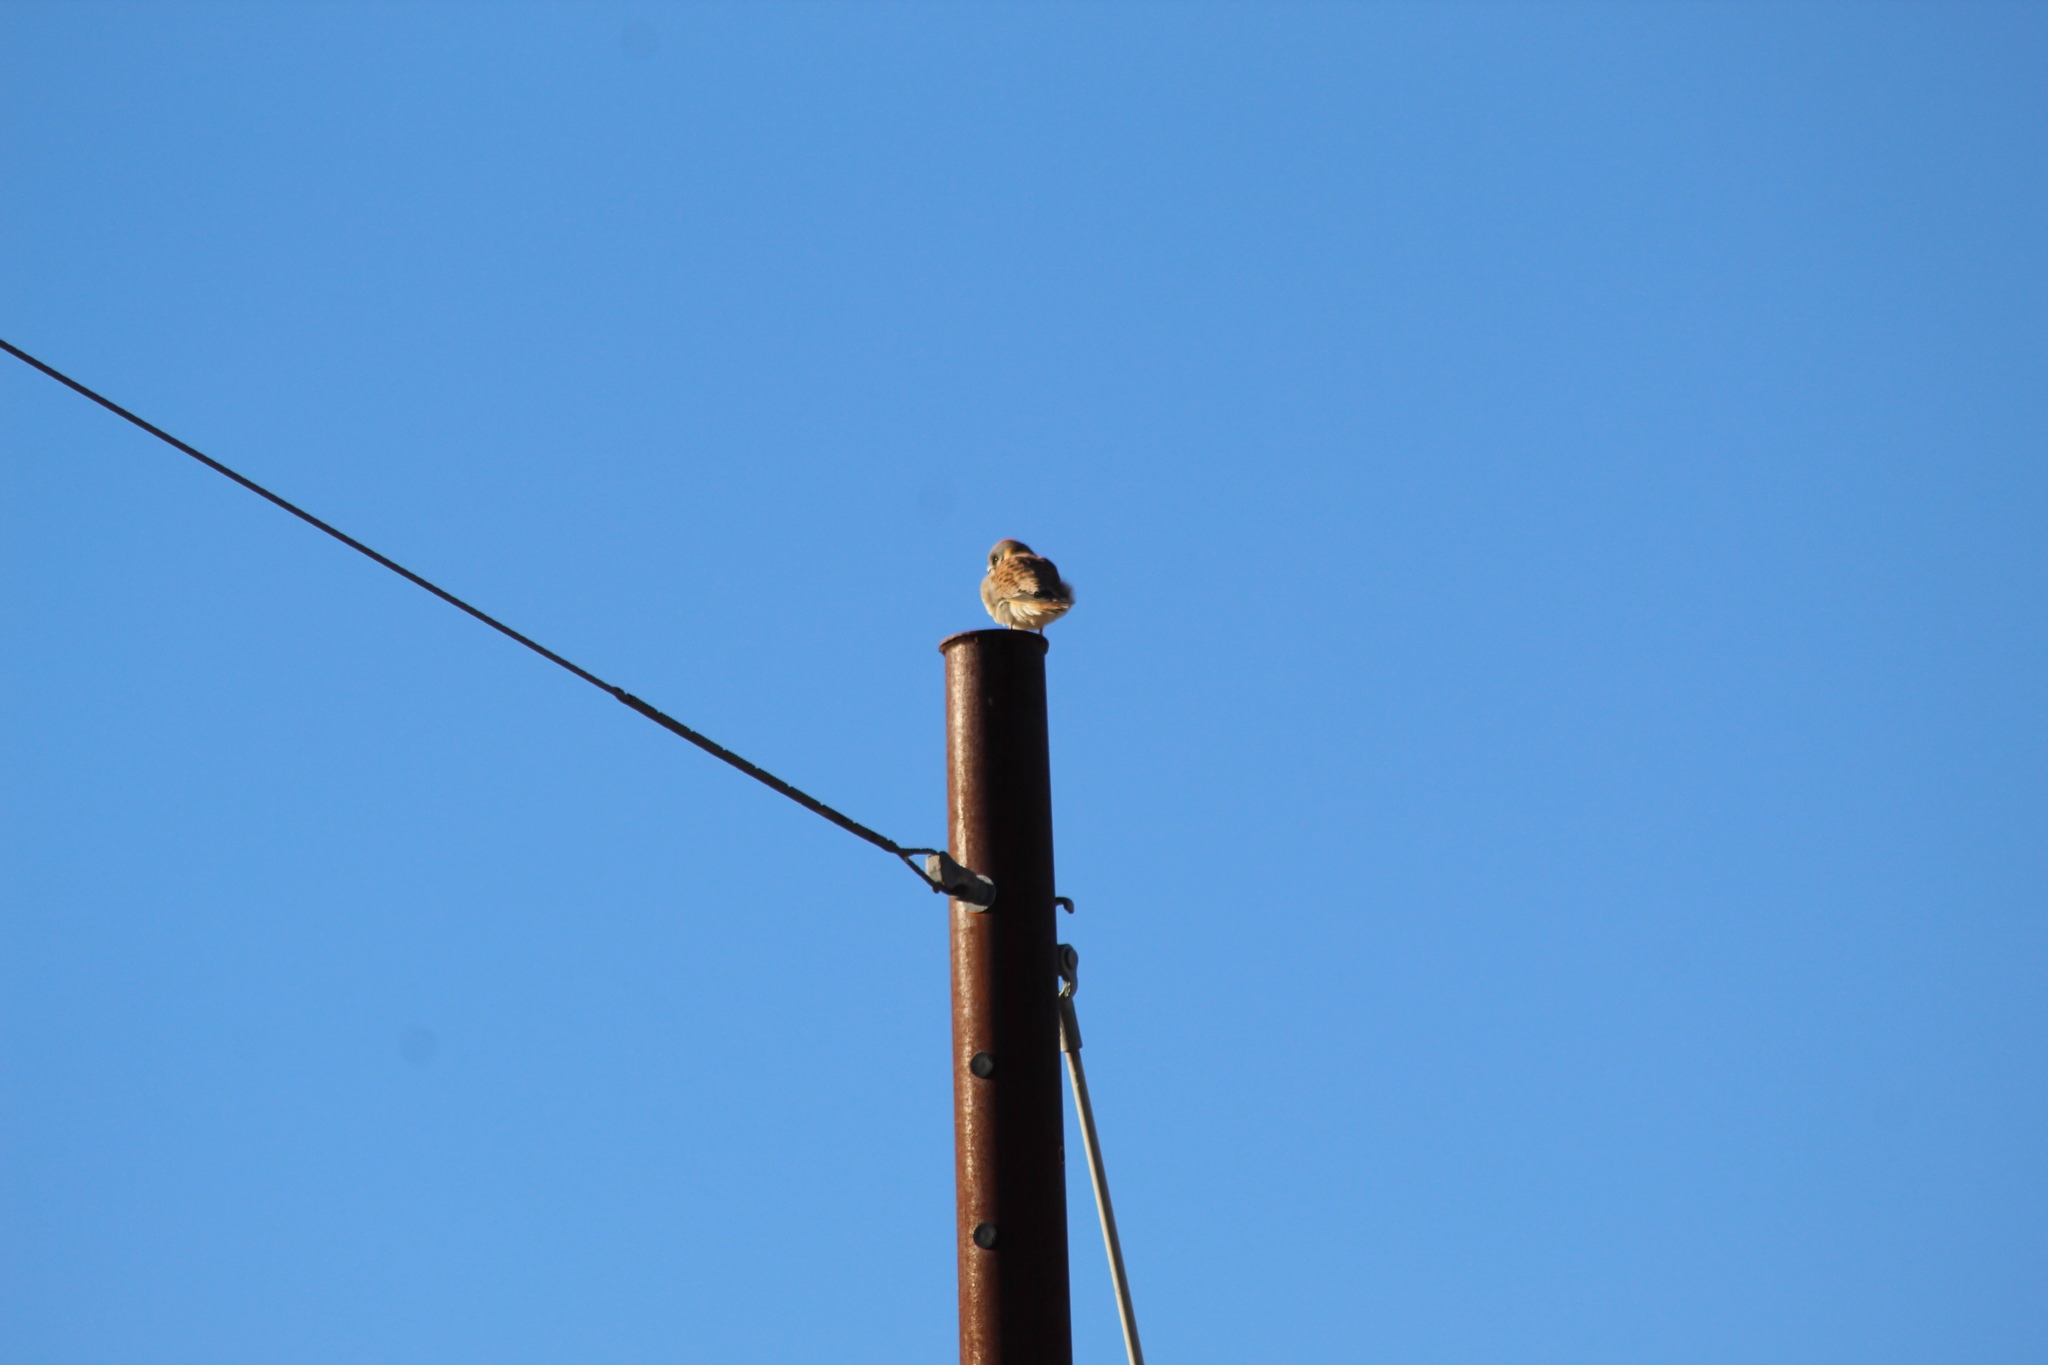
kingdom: Animalia
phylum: Chordata
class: Aves
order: Falconiformes
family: Falconidae
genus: Falco
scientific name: Falco sparverius
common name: American kestrel
